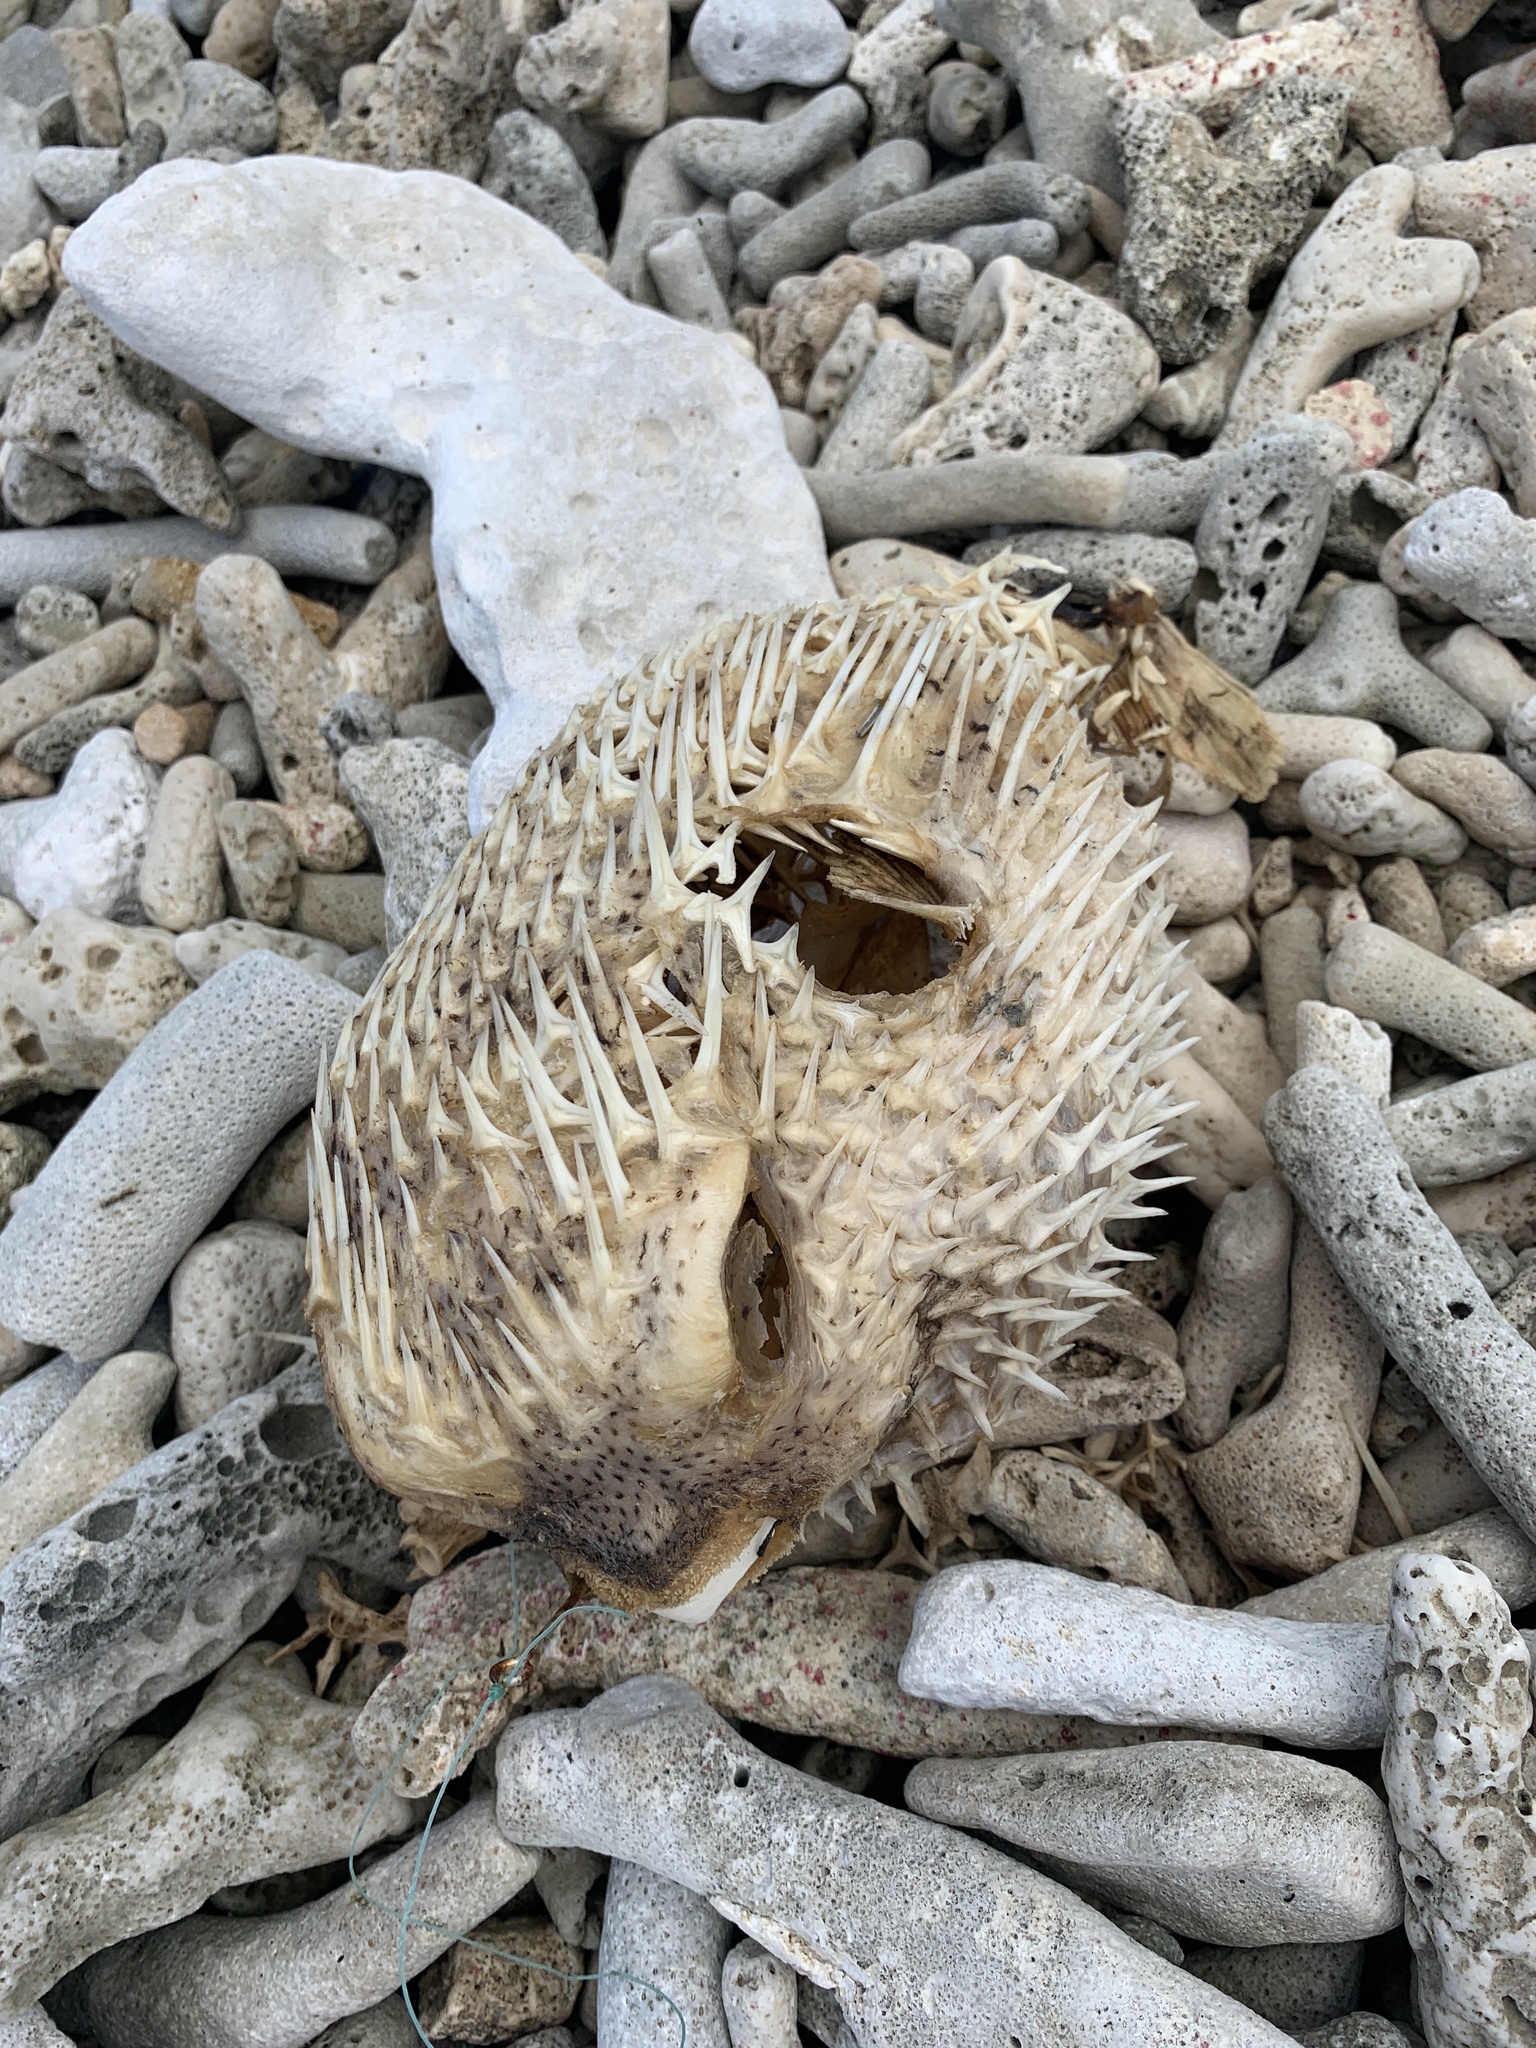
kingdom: Animalia
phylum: Chordata
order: Tetraodontiformes
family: Diodontidae
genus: Diodon
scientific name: Diodon hystrix
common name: Giant porcupinefish
